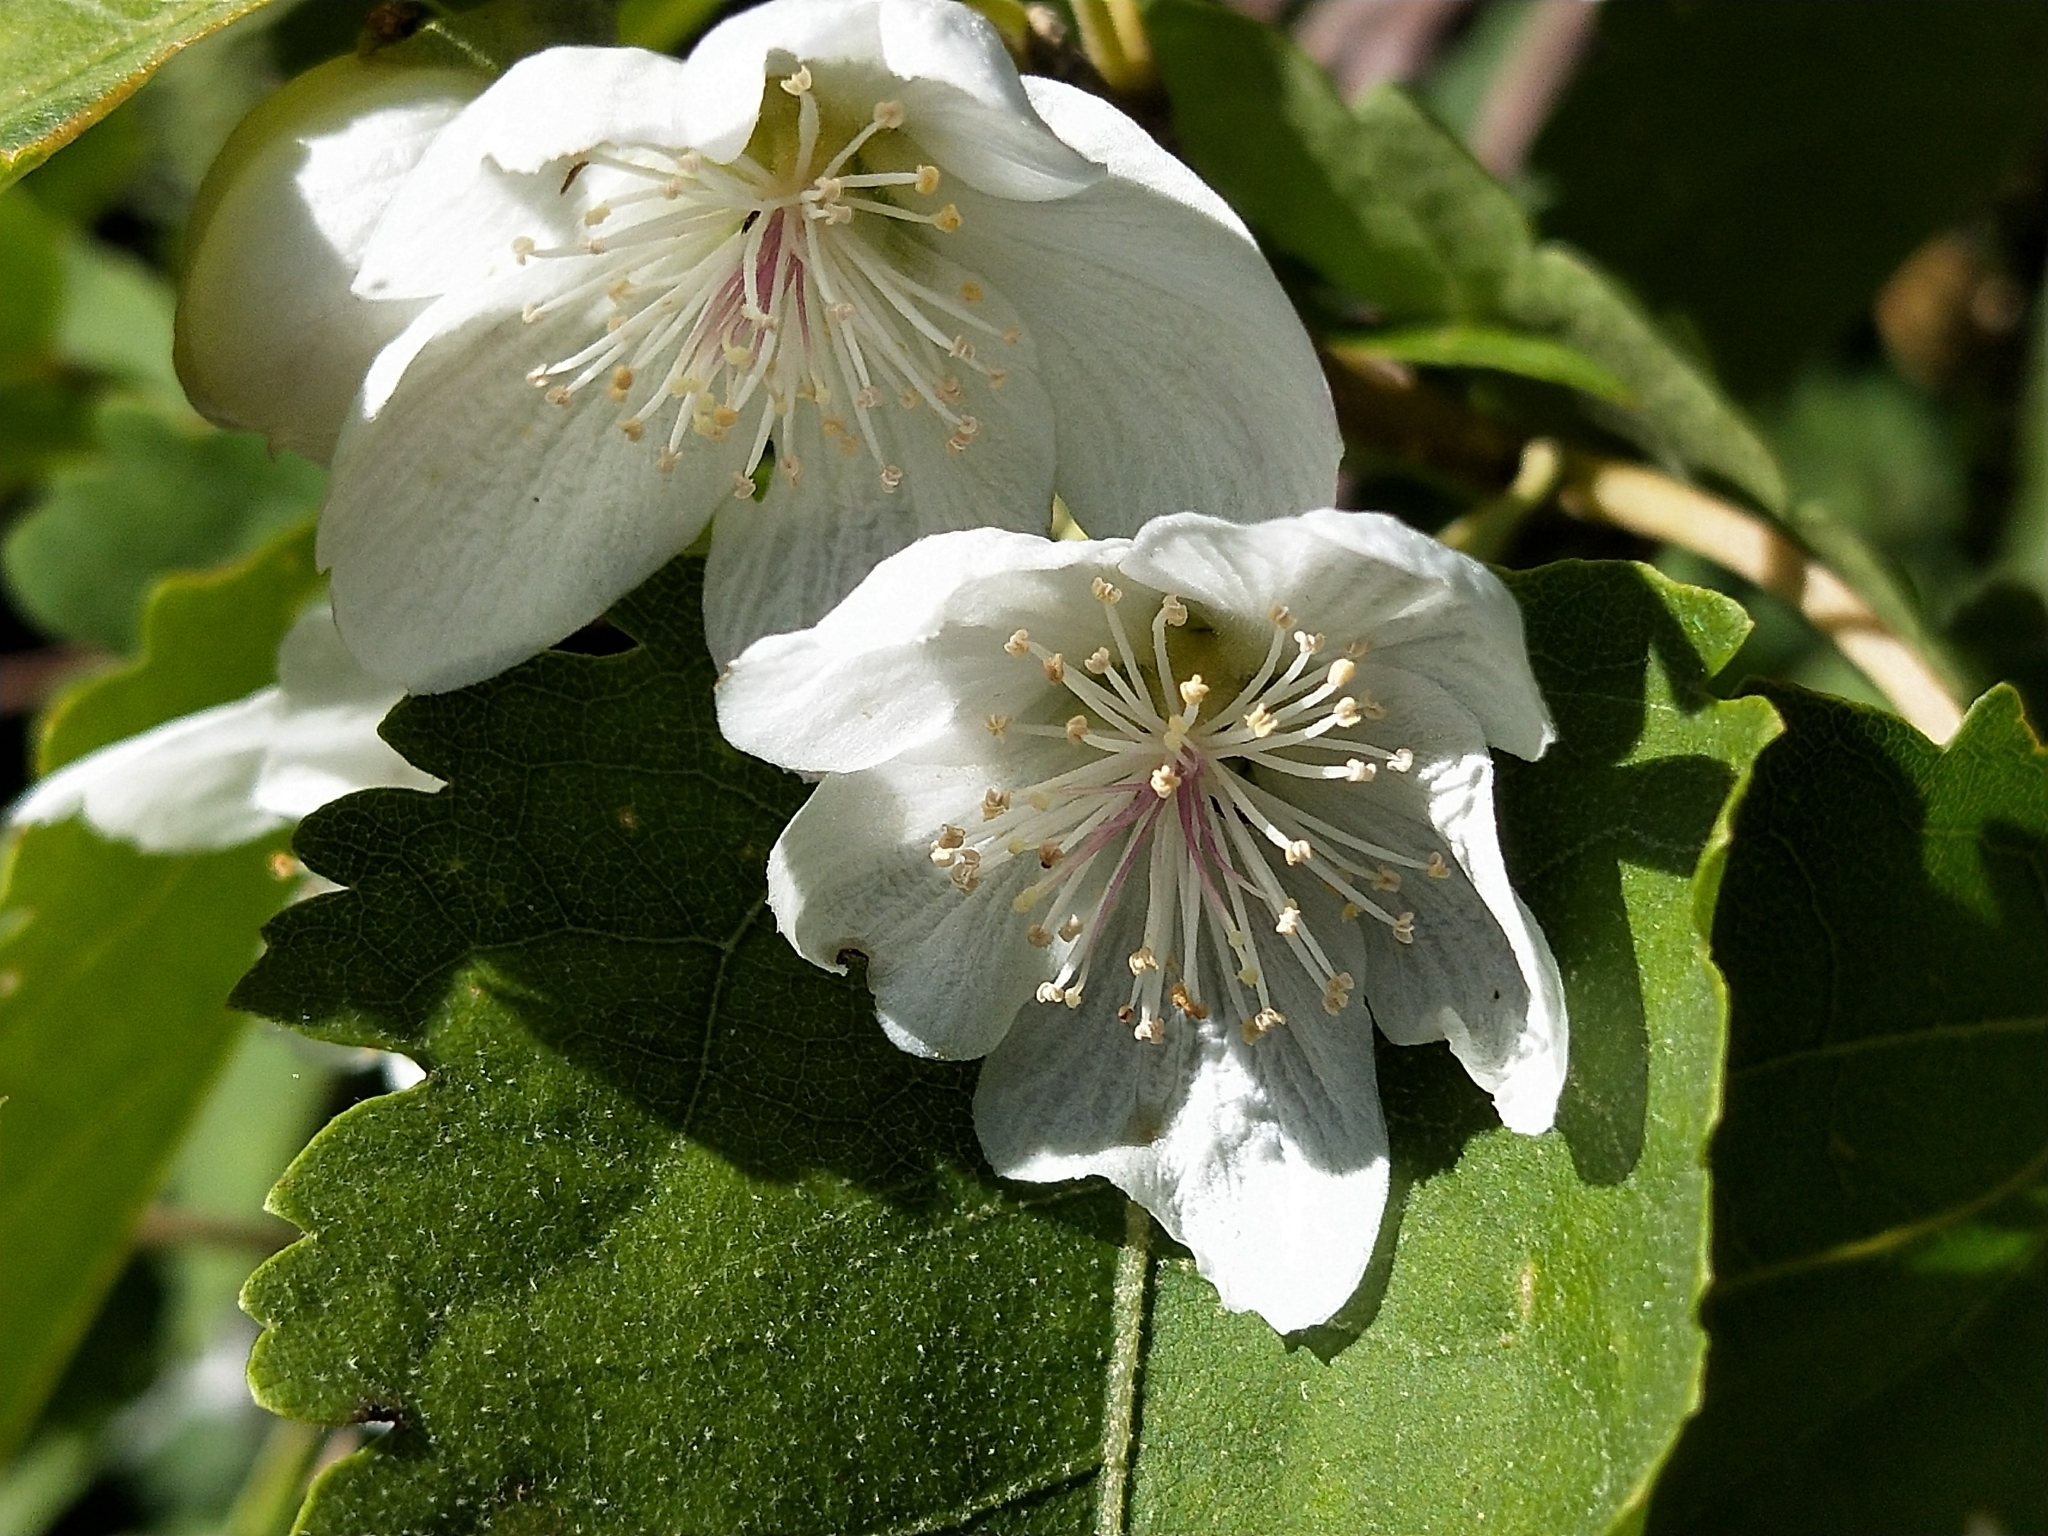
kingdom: Plantae
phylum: Tracheophyta
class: Magnoliopsida
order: Malvales
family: Malvaceae
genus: Hoheria
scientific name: Hoheria glabrata
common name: Mountain-ribbon
